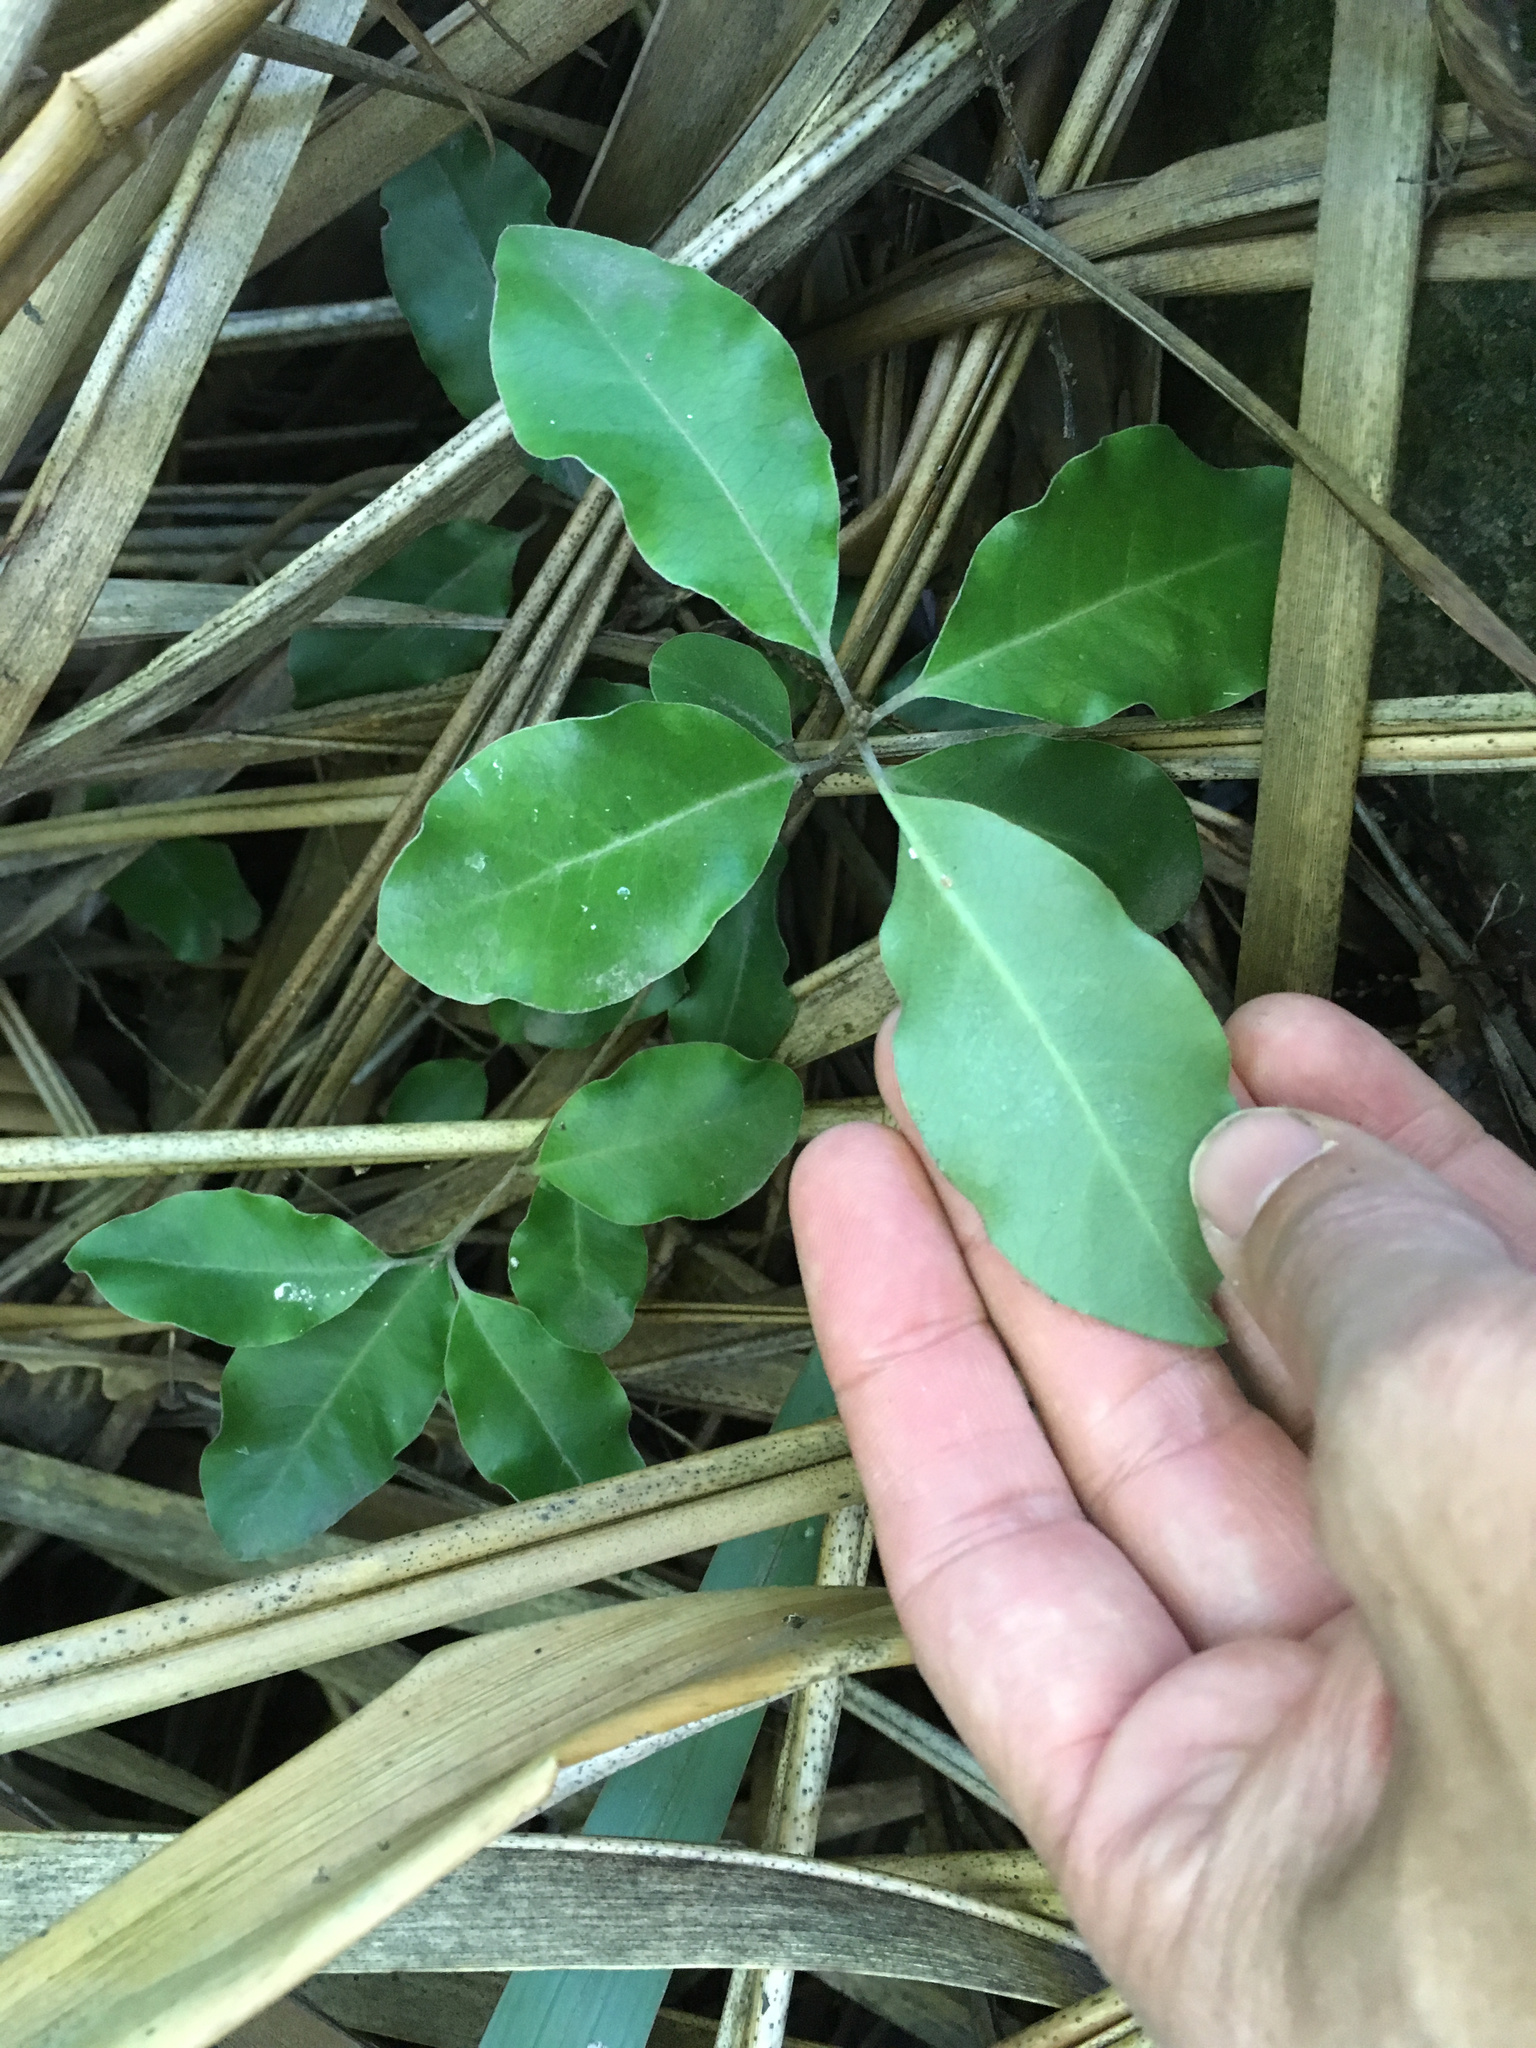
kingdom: Plantae
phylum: Tracheophyta
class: Magnoliopsida
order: Apiales
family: Pittosporaceae
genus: Pittosporum
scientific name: Pittosporum tenuifolium
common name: Kohuhu
